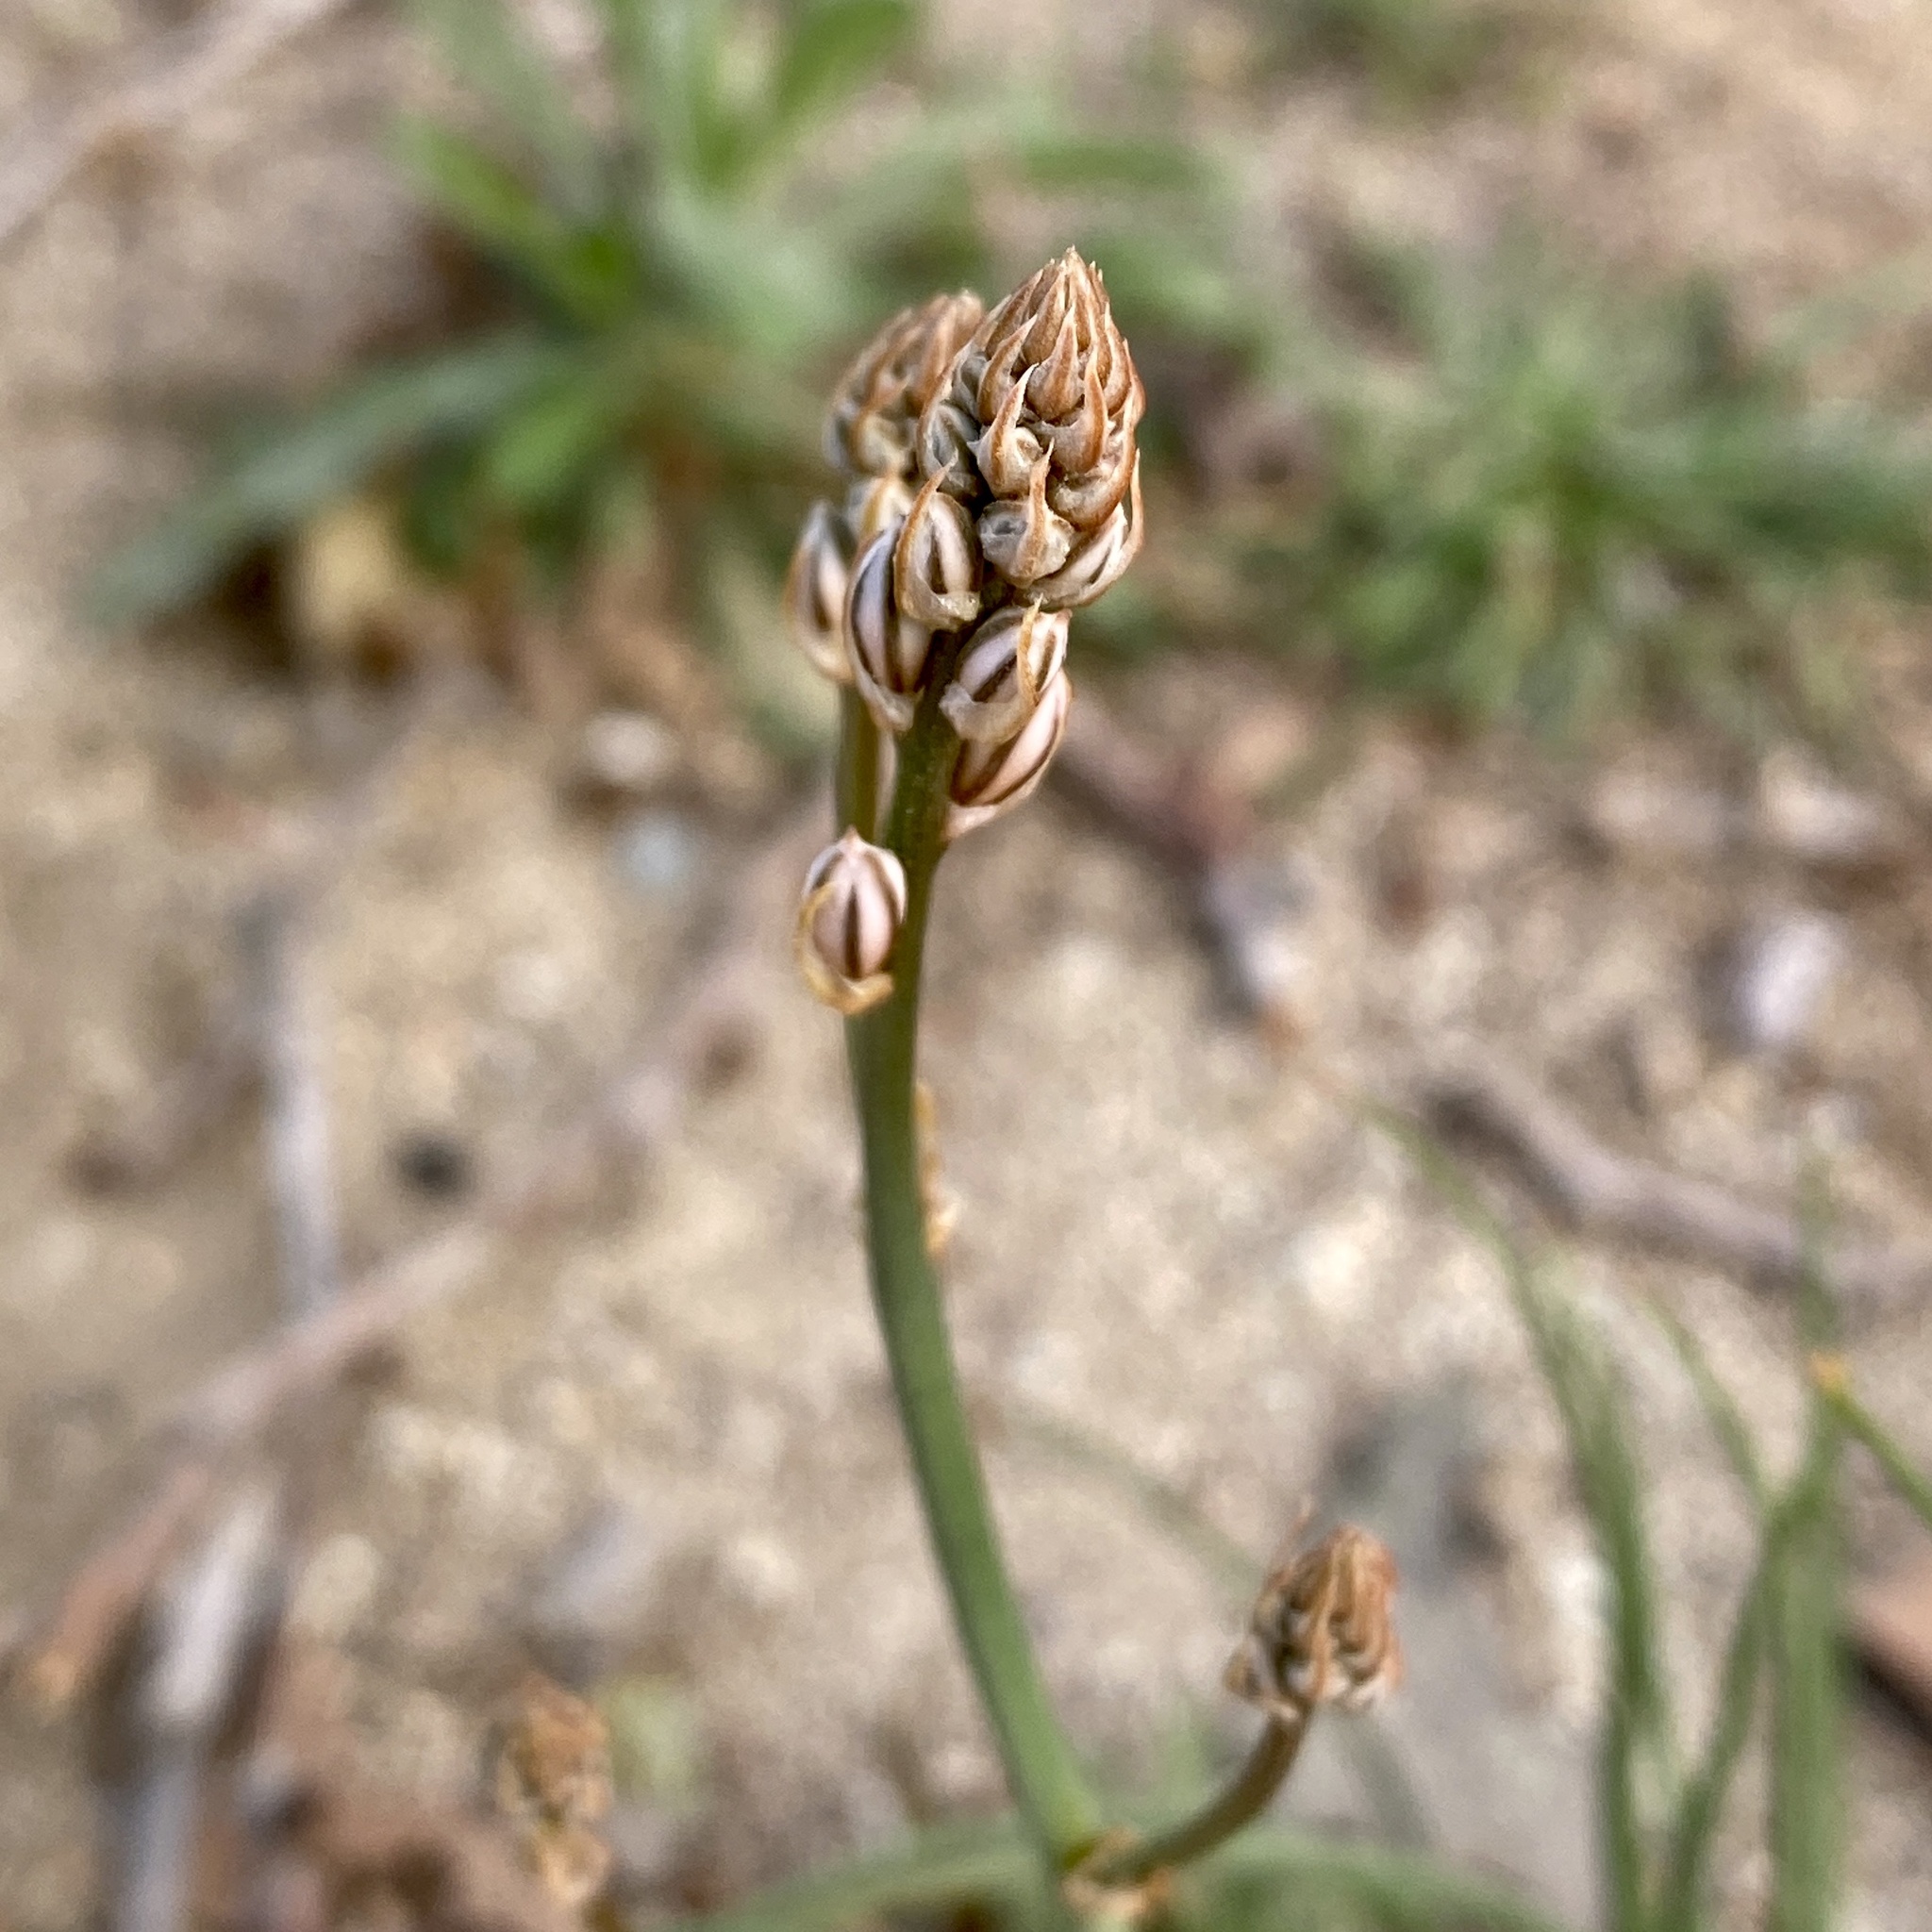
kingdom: Plantae
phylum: Tracheophyta
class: Liliopsida
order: Asparagales
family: Asphodelaceae
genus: Asphodelus
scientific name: Asphodelus fistulosus
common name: Onionweed
